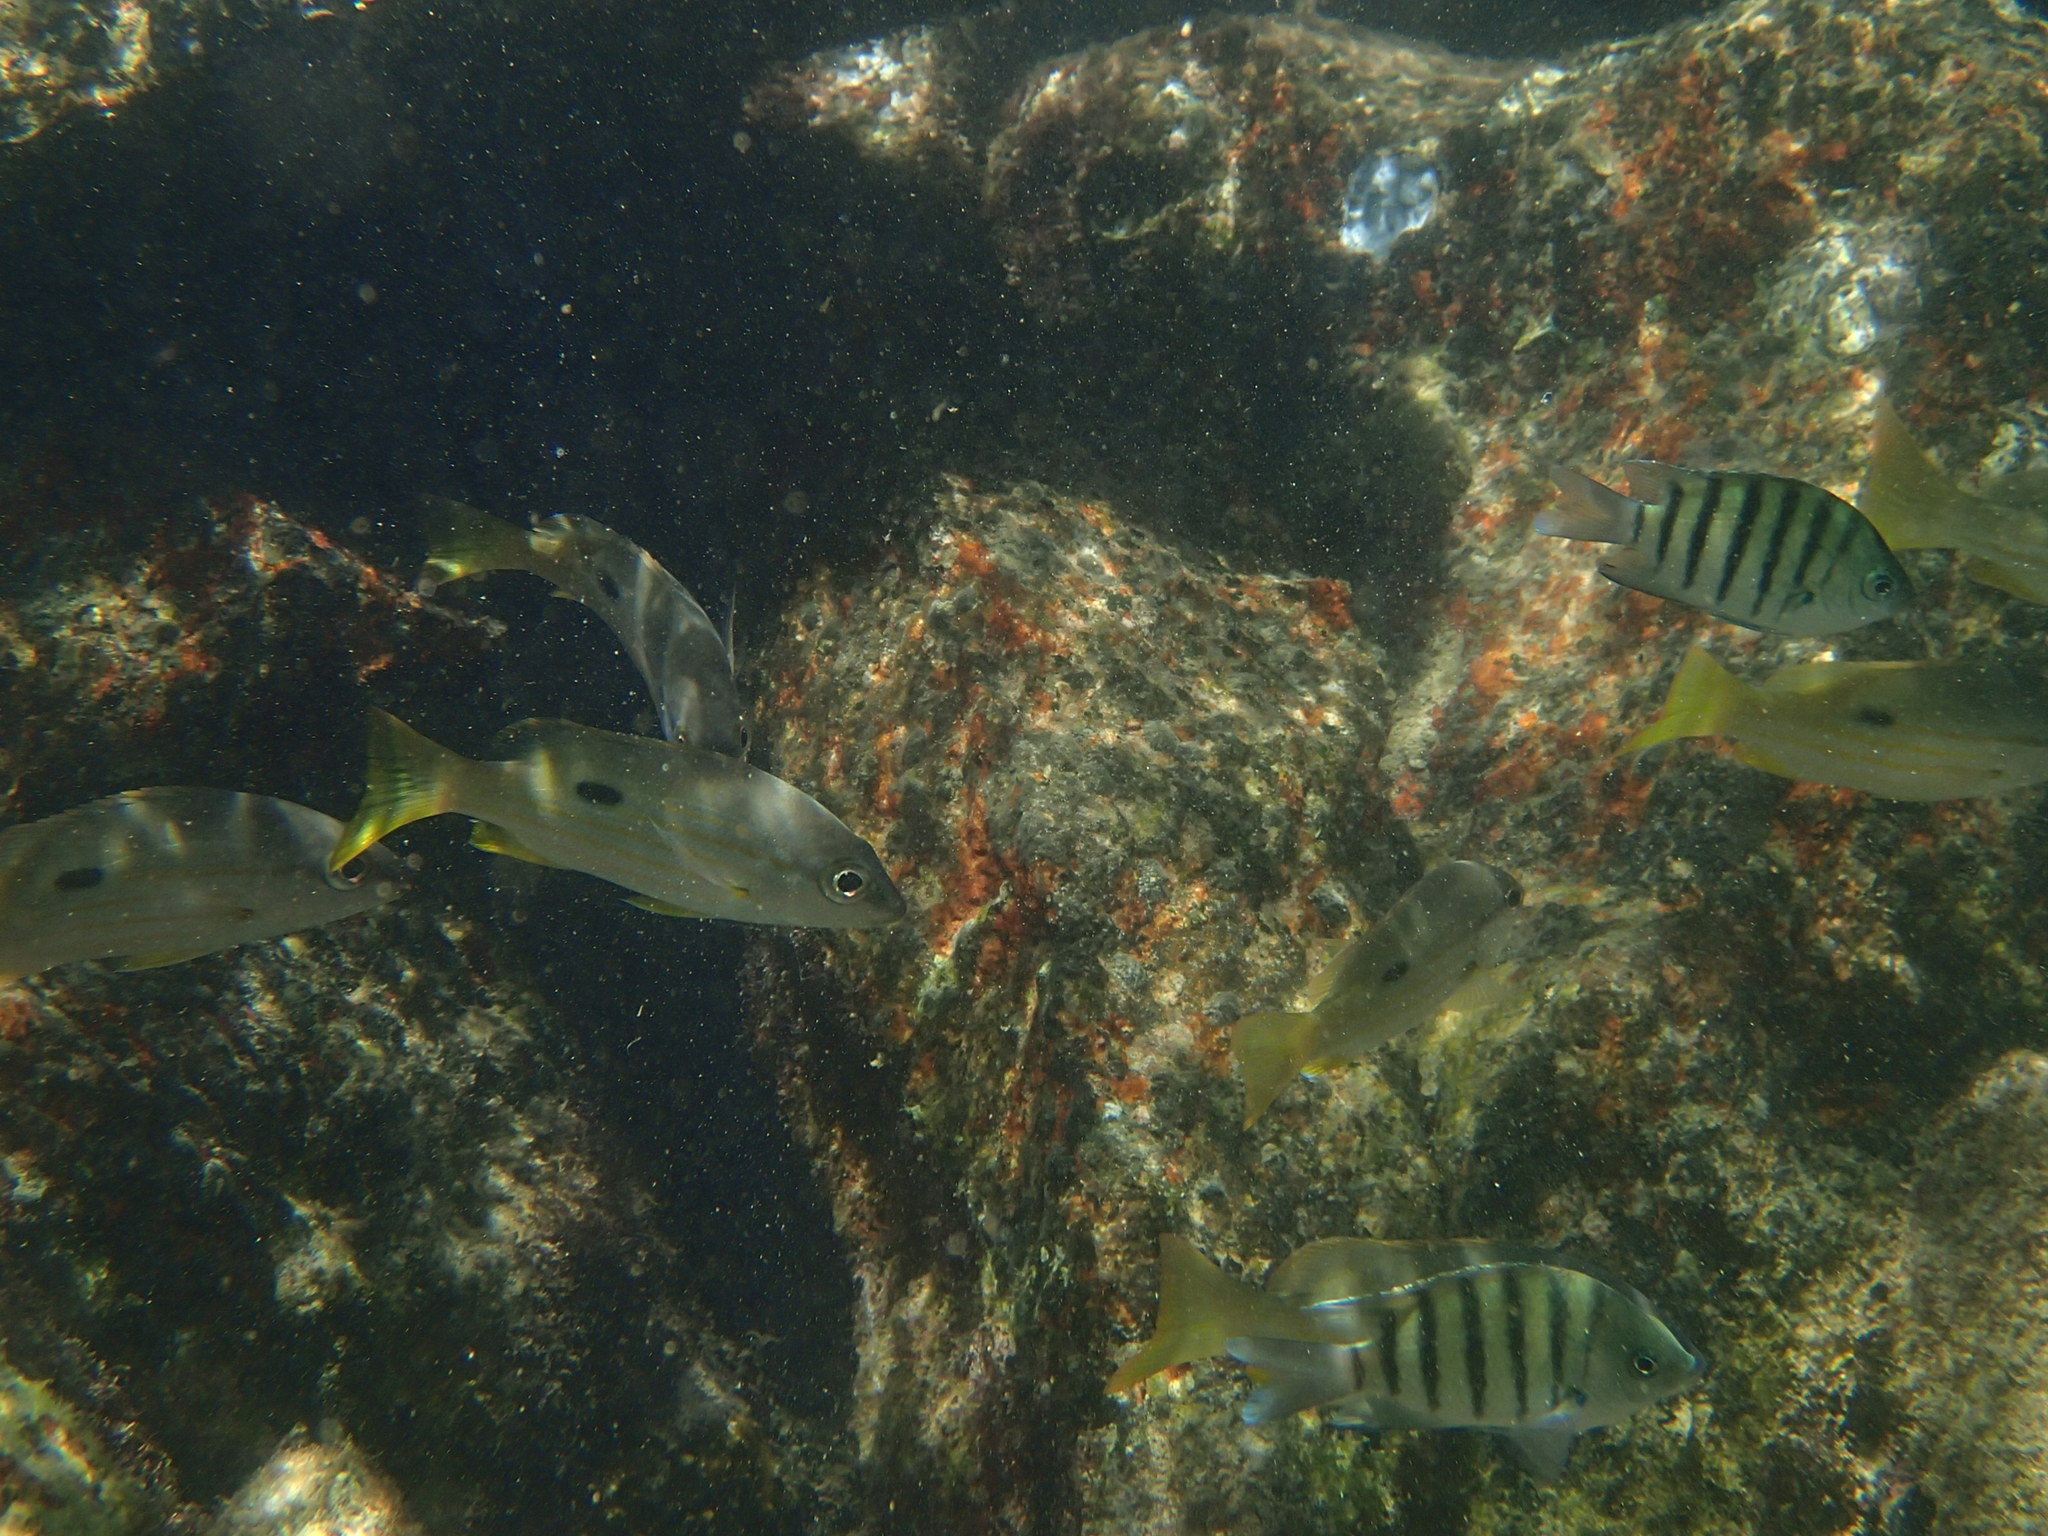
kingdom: Animalia
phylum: Chordata
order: Perciformes
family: Pomacentridae
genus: Abudefduf
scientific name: Abudefduf bengalensis
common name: Bengal sergeant
